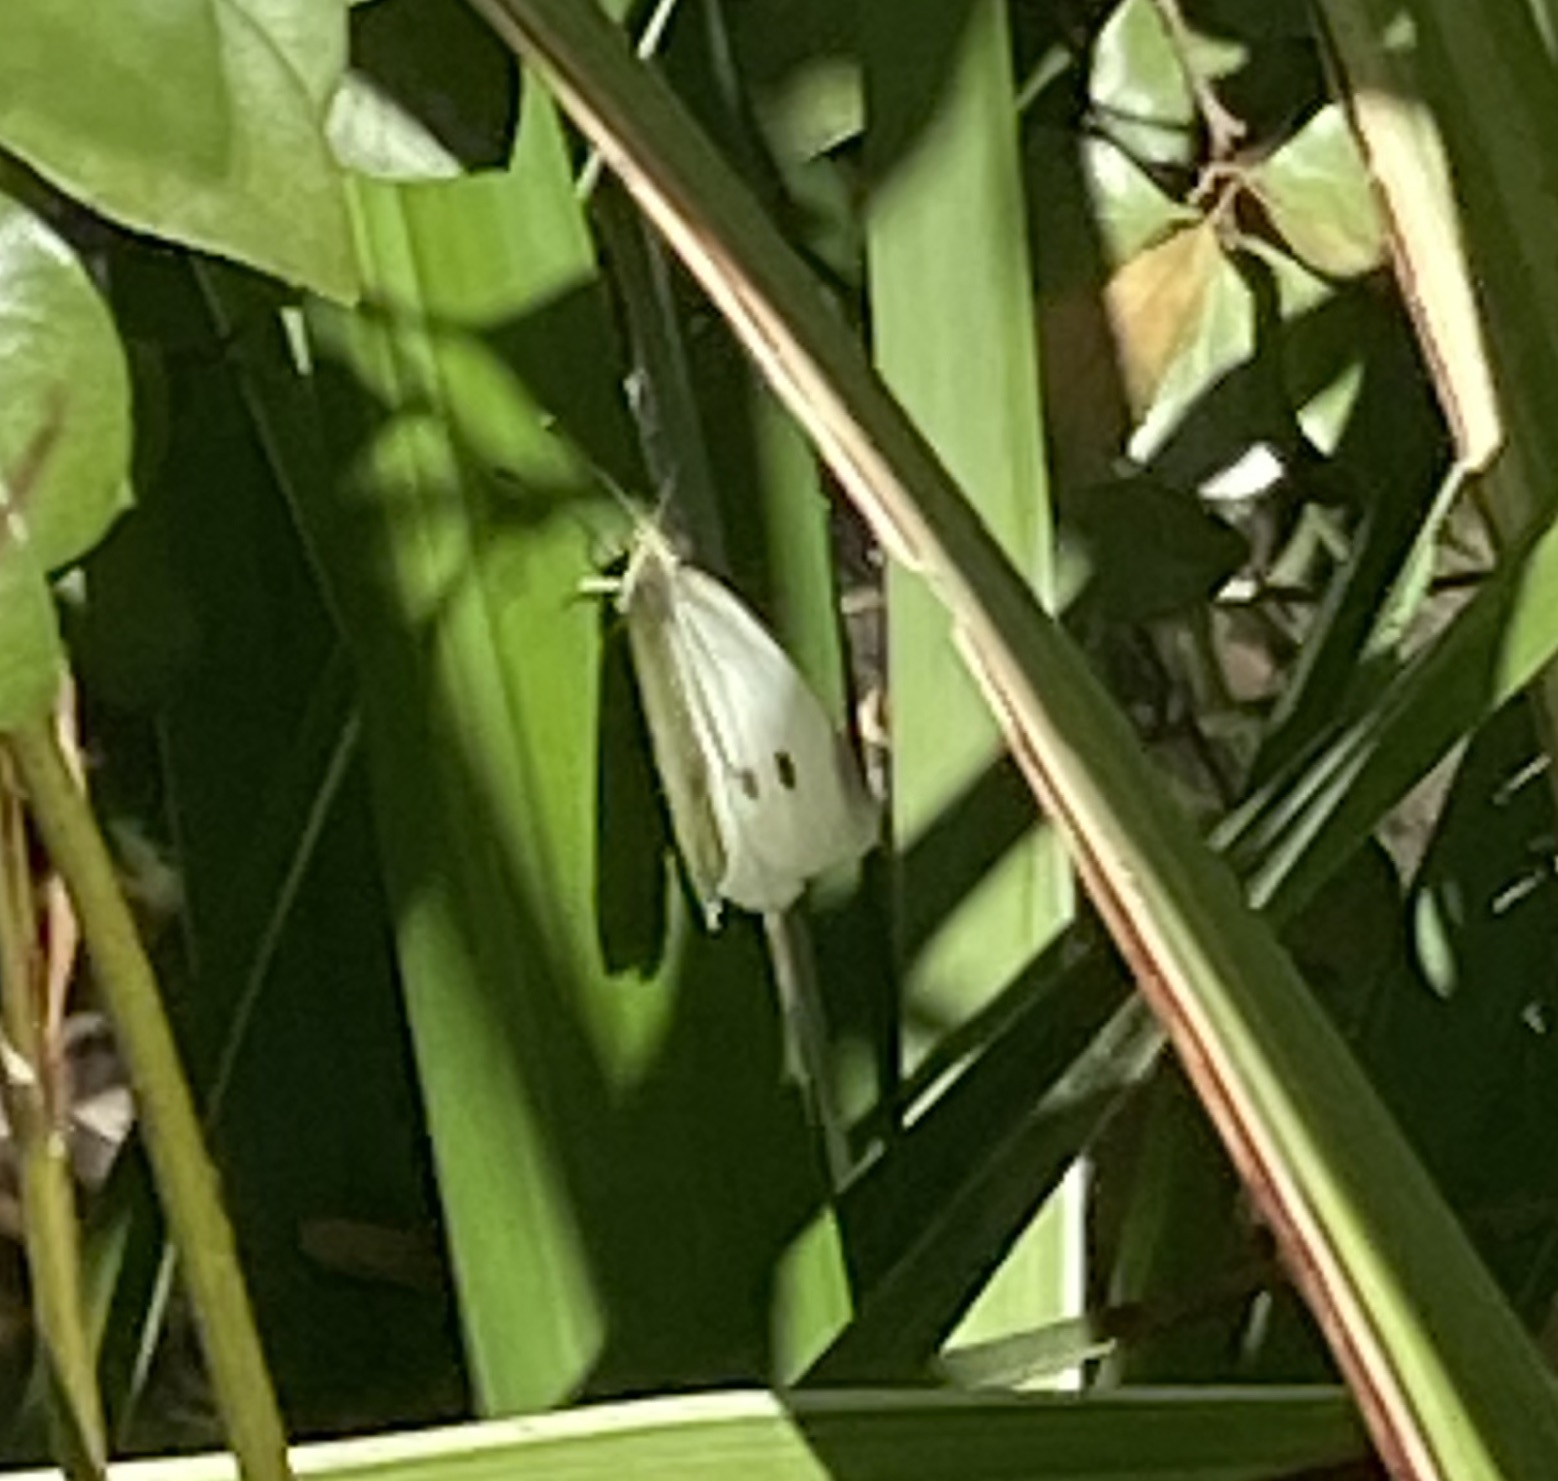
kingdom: Animalia
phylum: Arthropoda
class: Insecta
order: Lepidoptera
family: Pieridae
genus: Pieris
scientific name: Pieris rapae
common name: Small white
